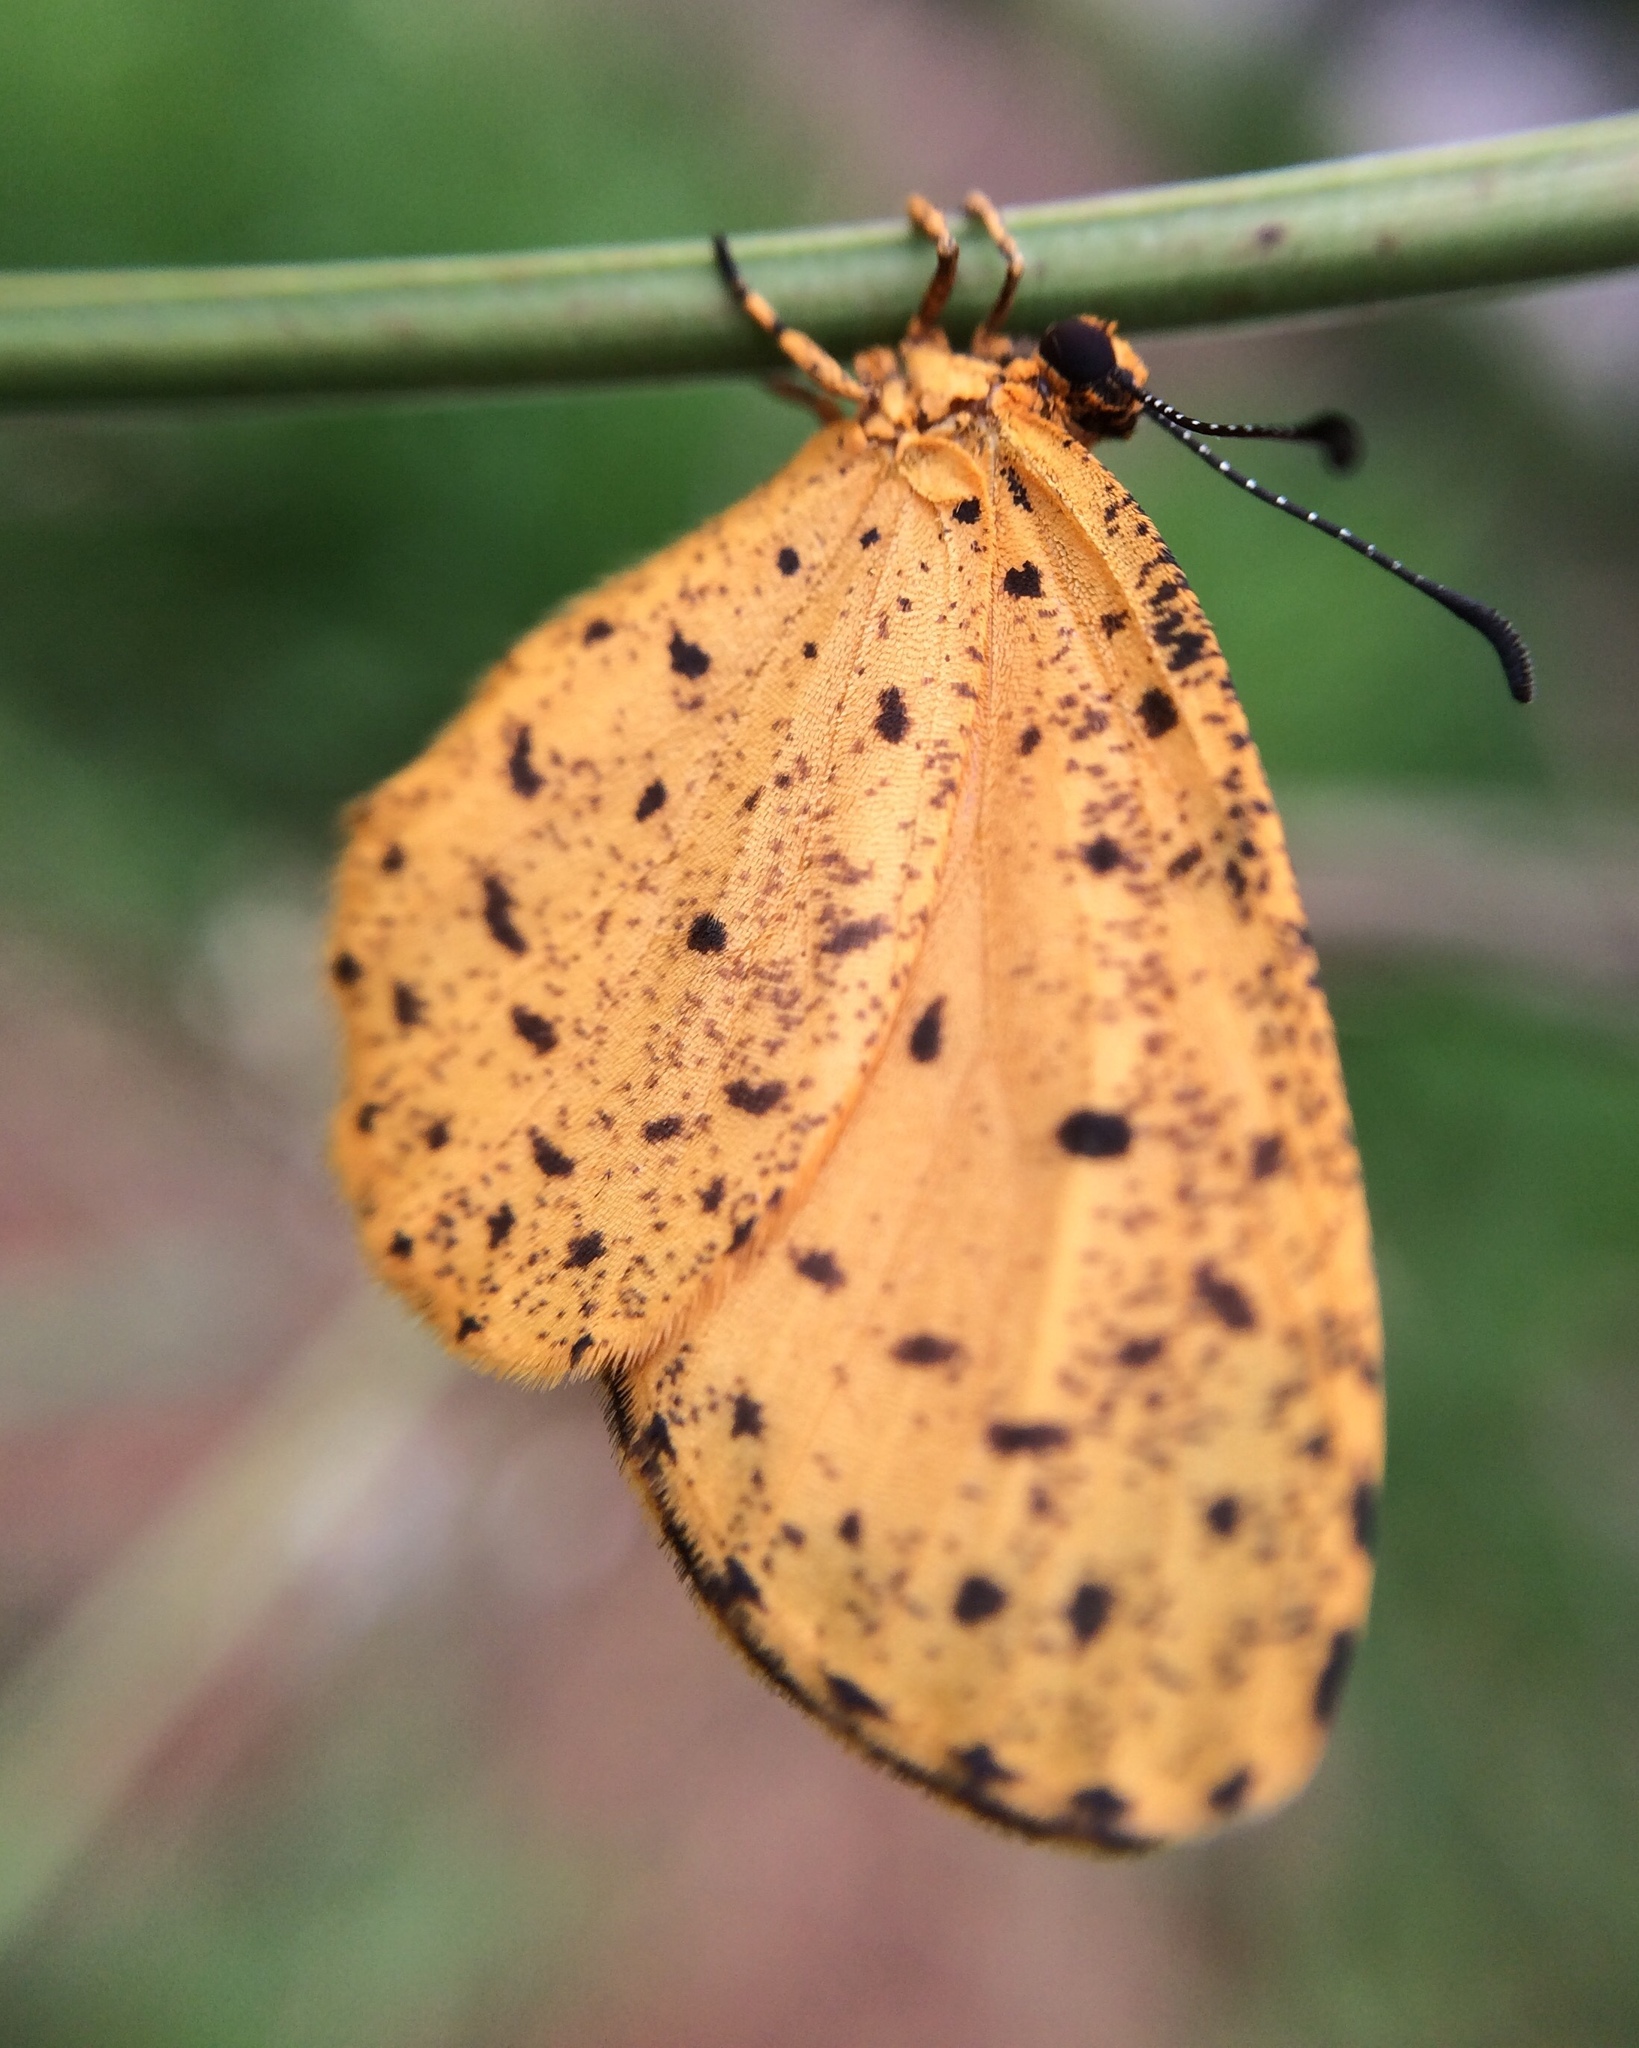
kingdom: Animalia
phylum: Arthropoda
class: Insecta
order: Lepidoptera
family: Lycaenidae
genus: Pentila
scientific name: Pentila tropicalis
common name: Spotted buff
